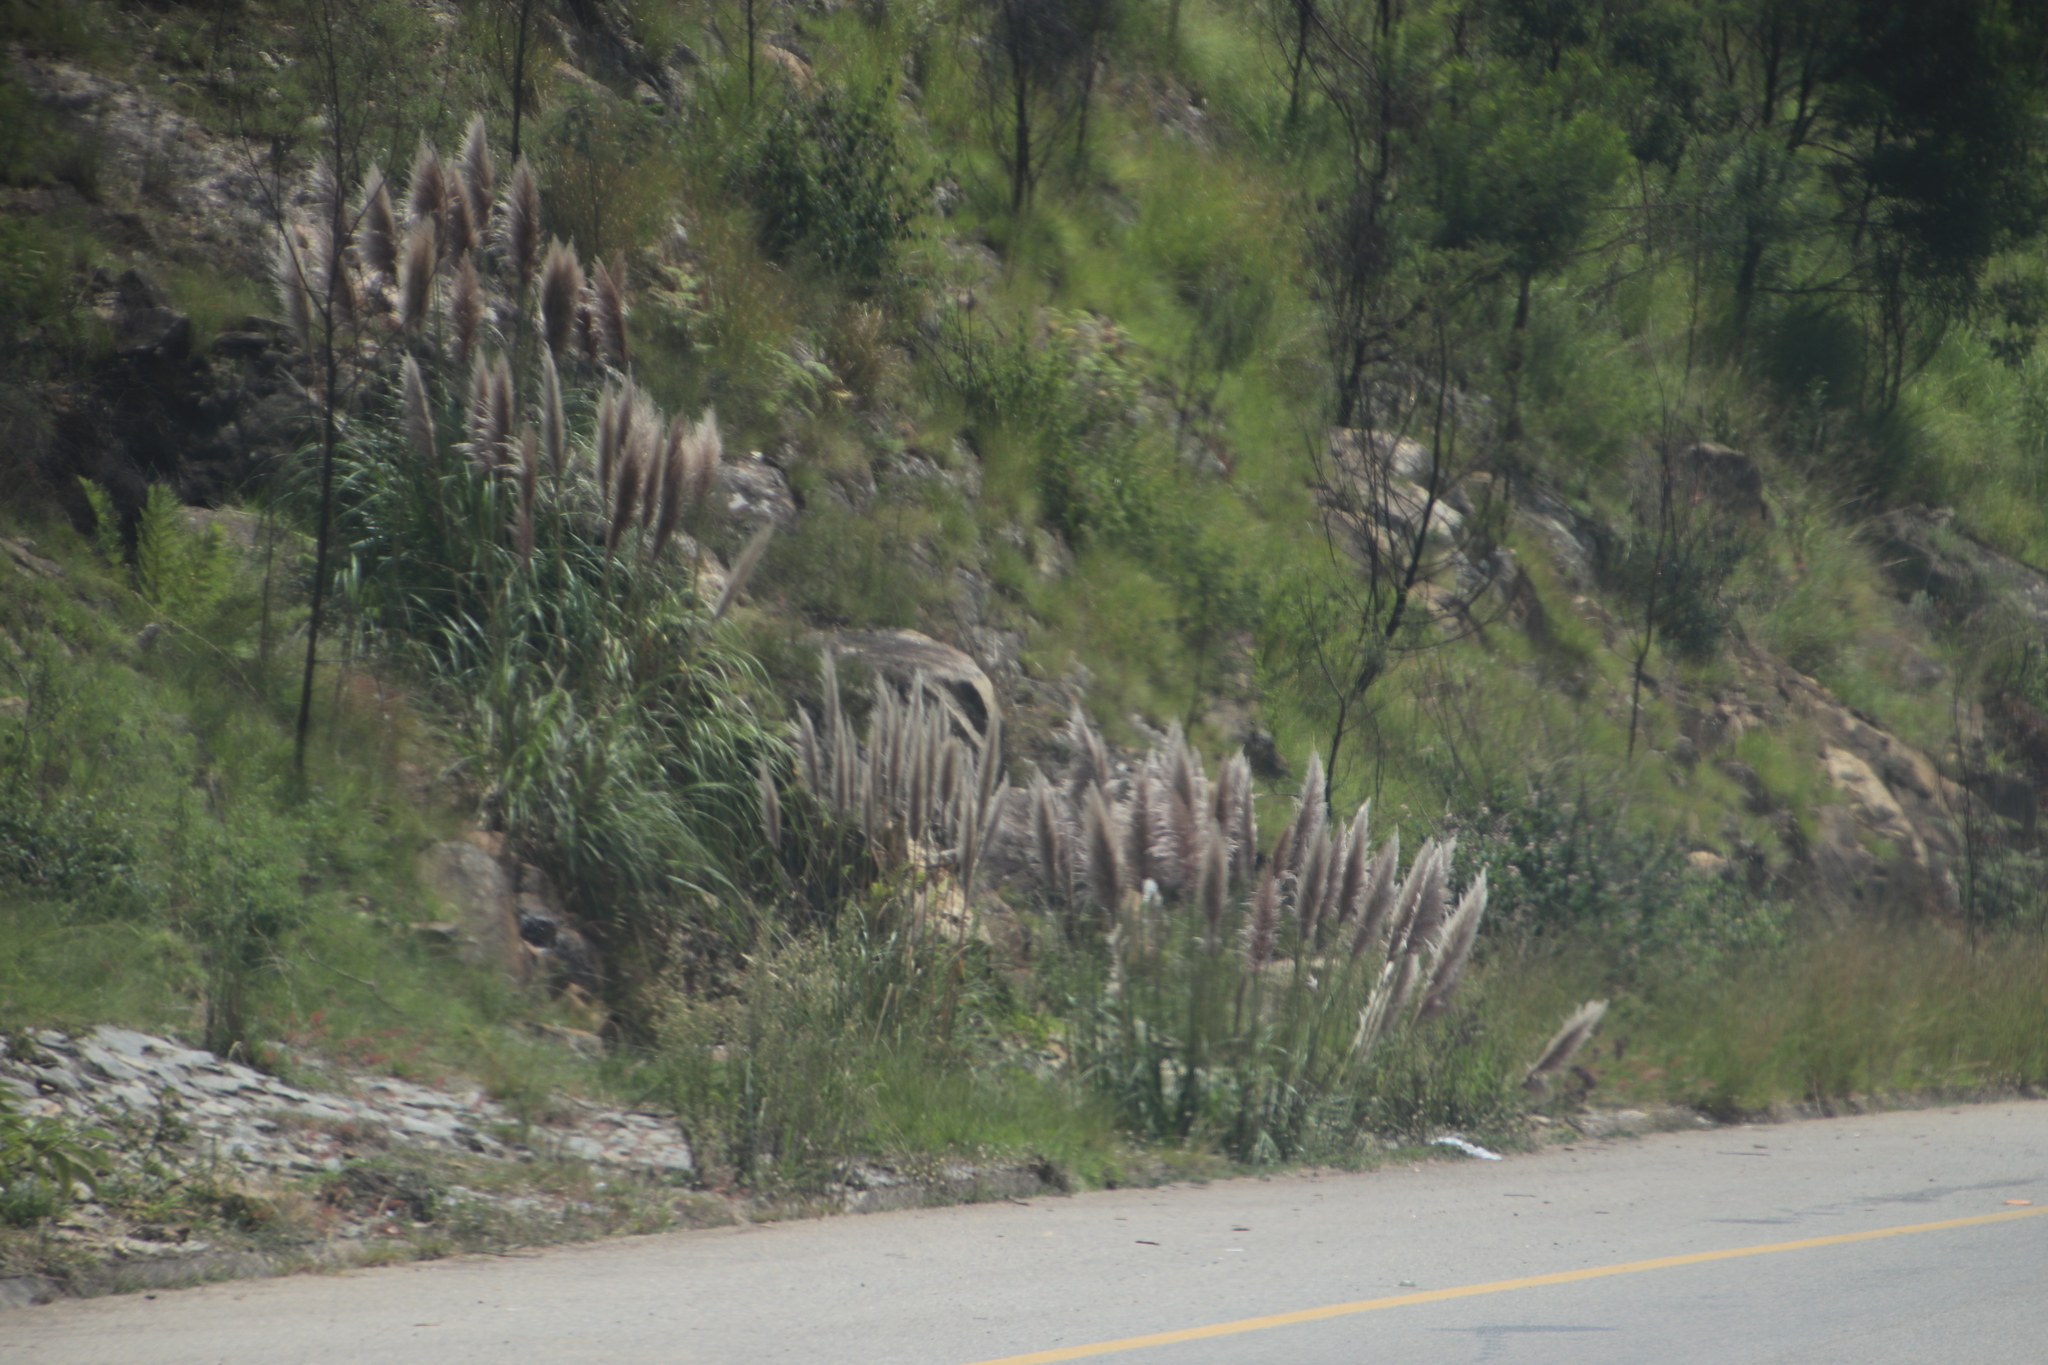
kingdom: Plantae
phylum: Tracheophyta
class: Liliopsida
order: Poales
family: Poaceae
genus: Cortaderia
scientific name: Cortaderia selloana
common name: Uruguayan pampas grass
